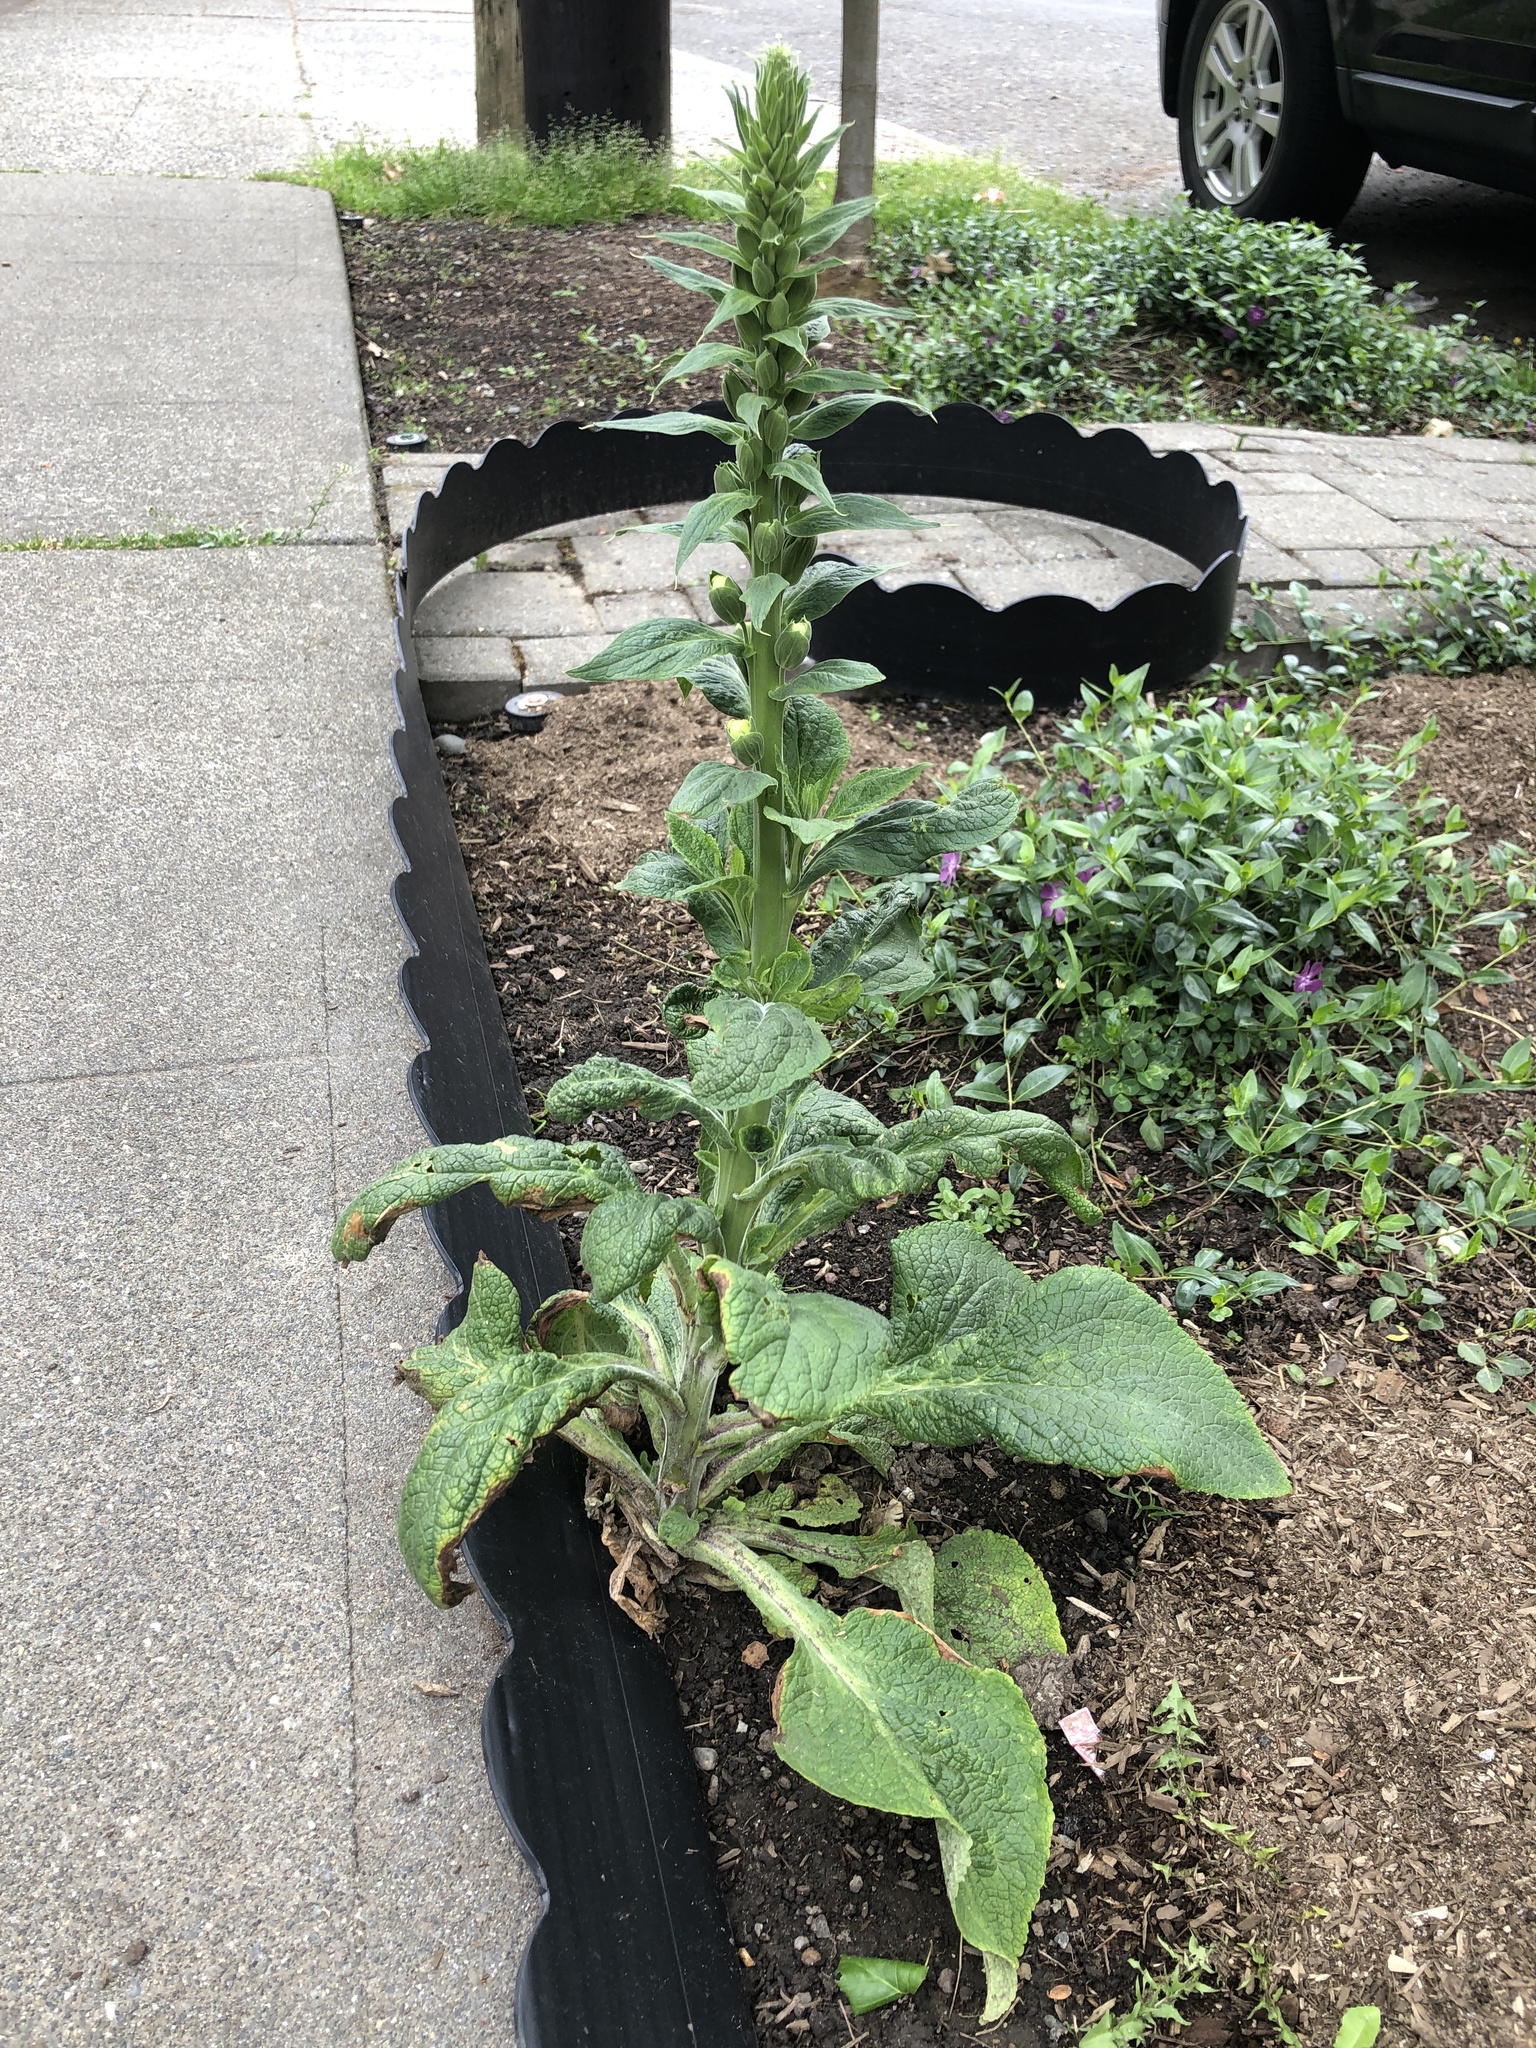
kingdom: Plantae
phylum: Tracheophyta
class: Magnoliopsida
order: Lamiales
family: Plantaginaceae
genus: Digitalis
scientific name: Digitalis purpurea
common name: Foxglove
